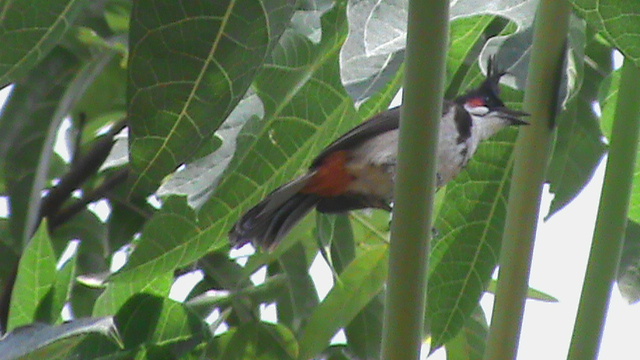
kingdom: Animalia
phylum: Chordata
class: Aves
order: Passeriformes
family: Pycnonotidae
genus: Pycnonotus
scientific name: Pycnonotus jocosus
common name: Red-whiskered bulbul
